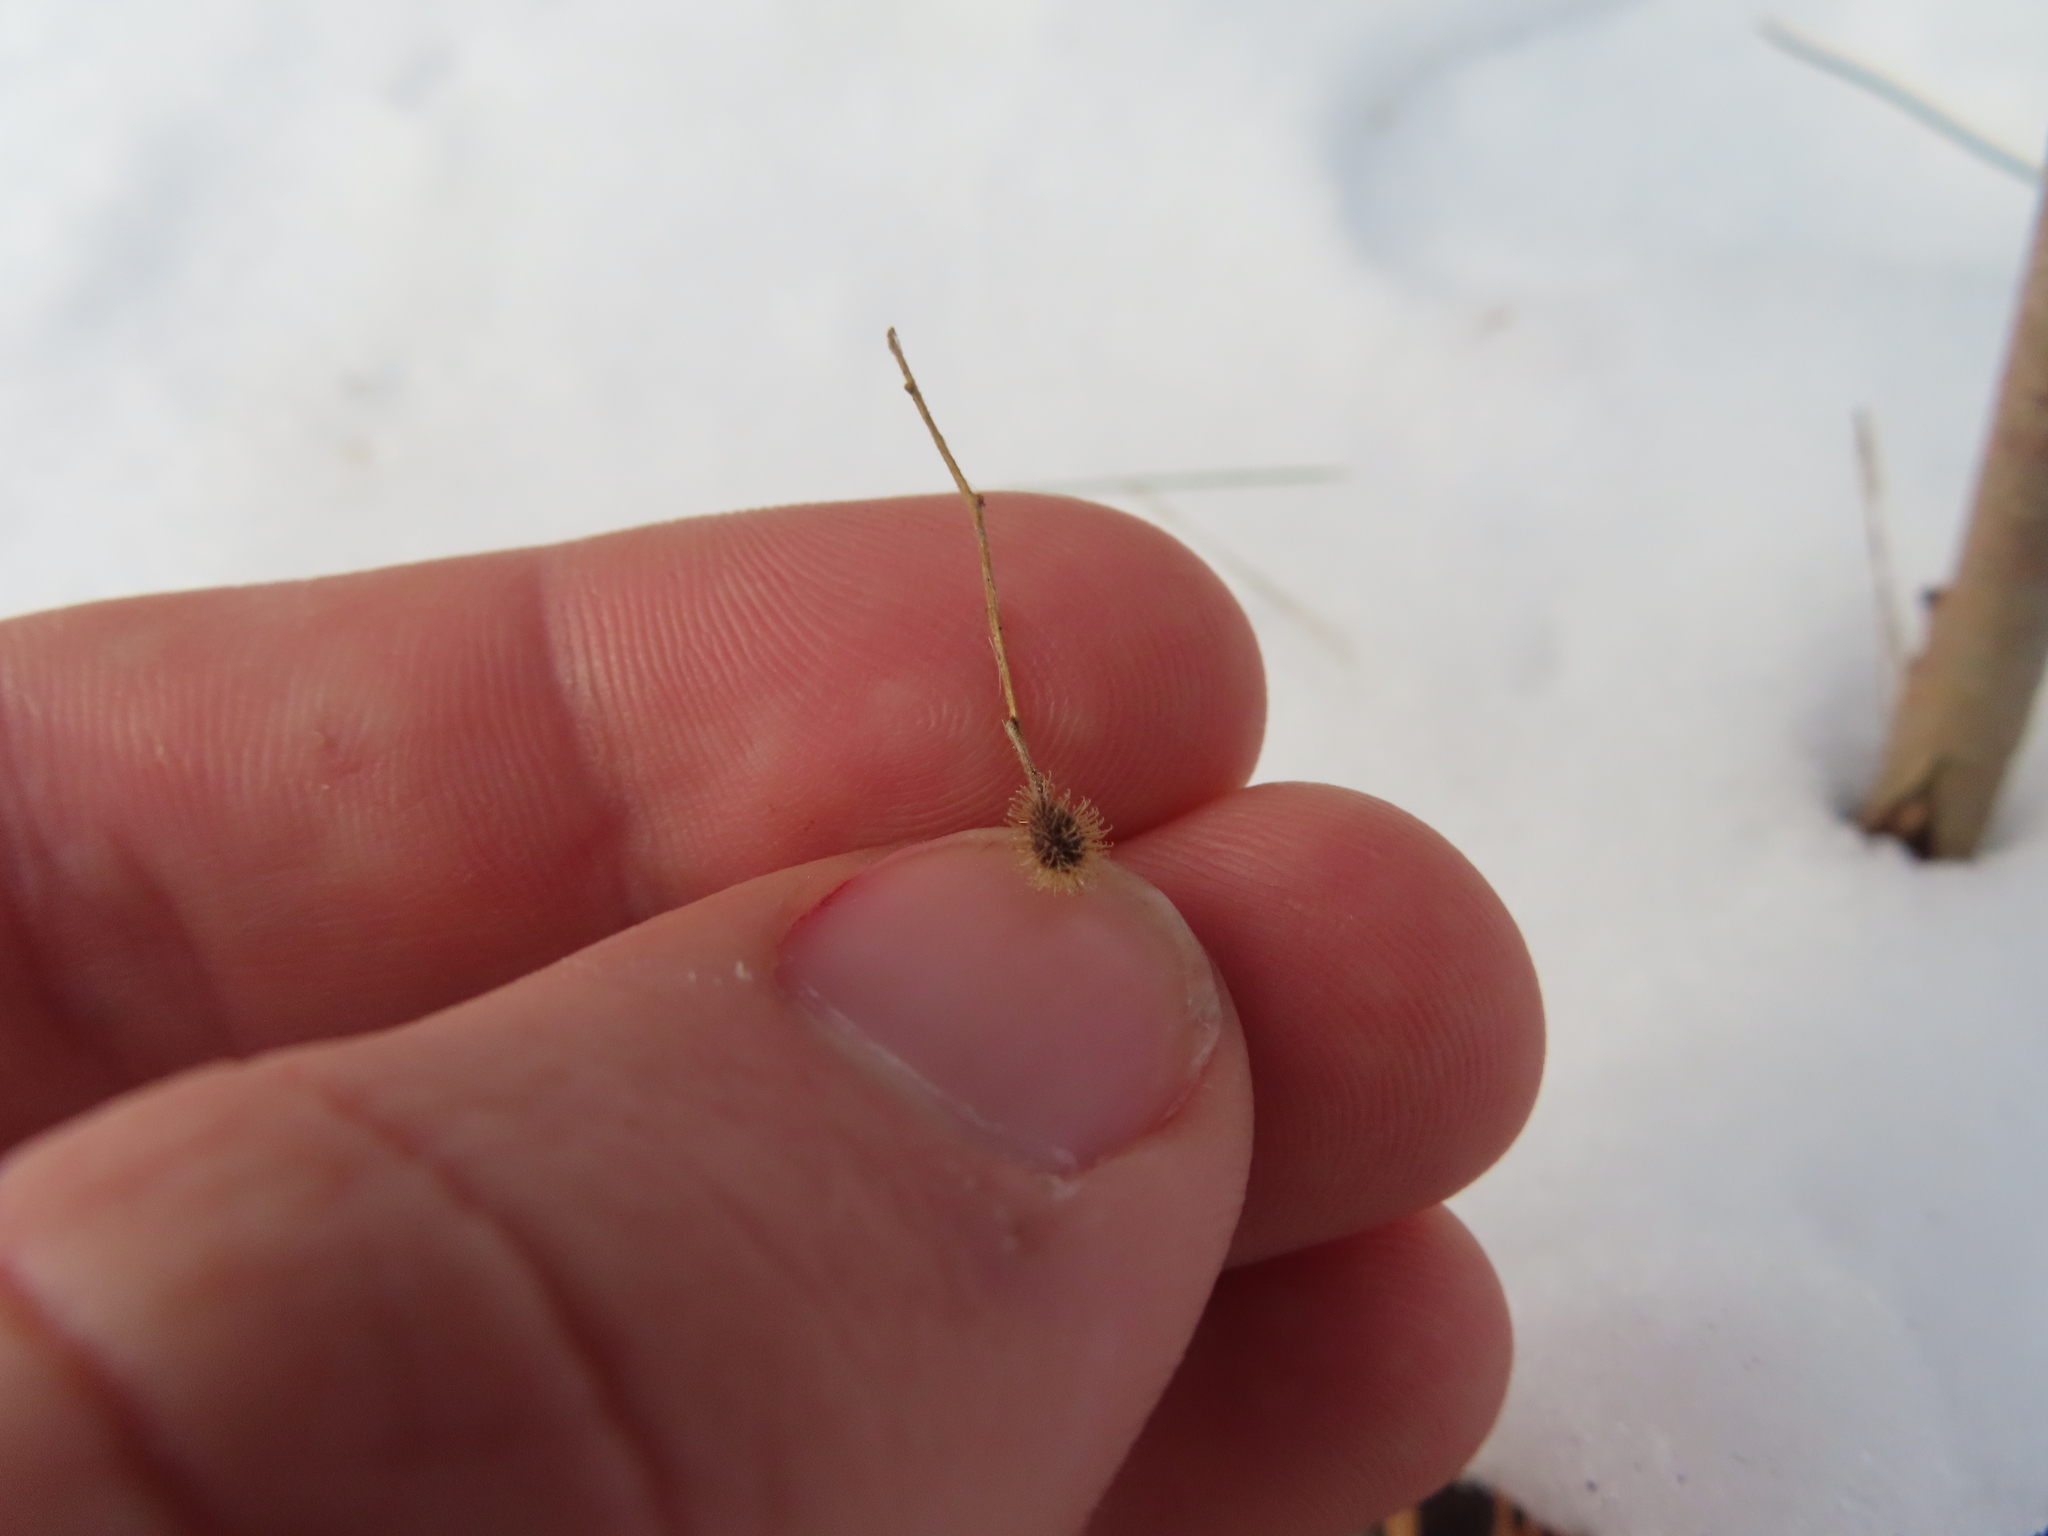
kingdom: Plantae
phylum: Tracheophyta
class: Magnoliopsida
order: Myrtales
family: Onagraceae
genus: Circaea
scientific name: Circaea canadensis
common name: Broad-leaved enchanter's nightshade
